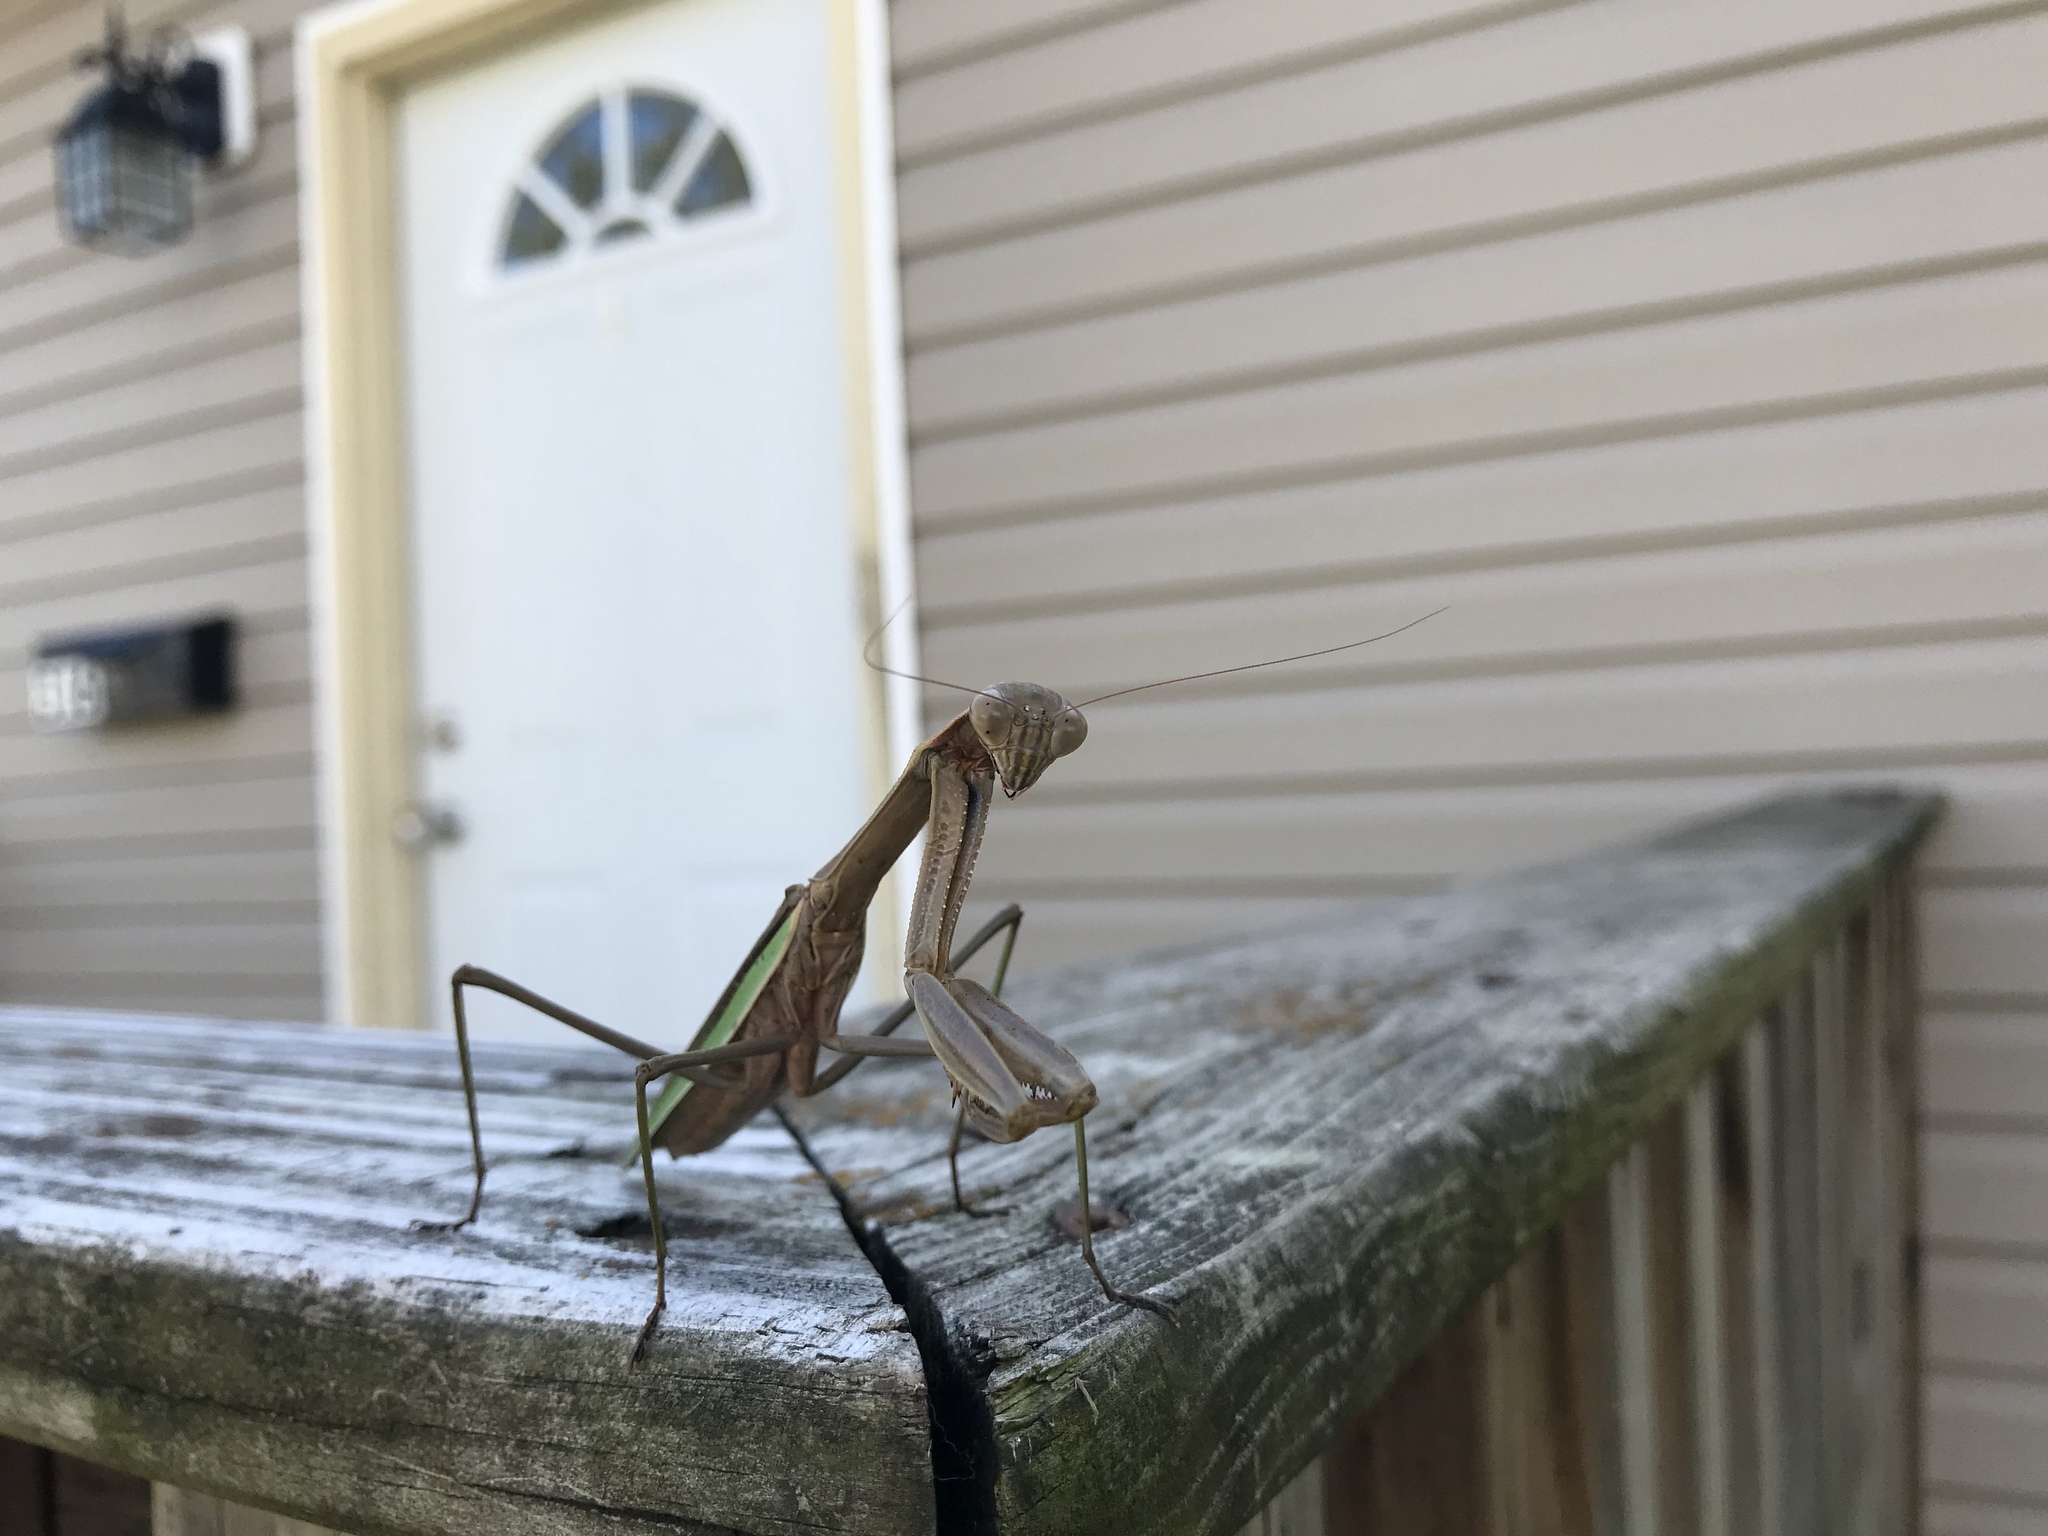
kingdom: Animalia
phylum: Arthropoda
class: Insecta
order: Mantodea
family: Mantidae
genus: Tenodera
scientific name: Tenodera sinensis
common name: Chinese mantis
